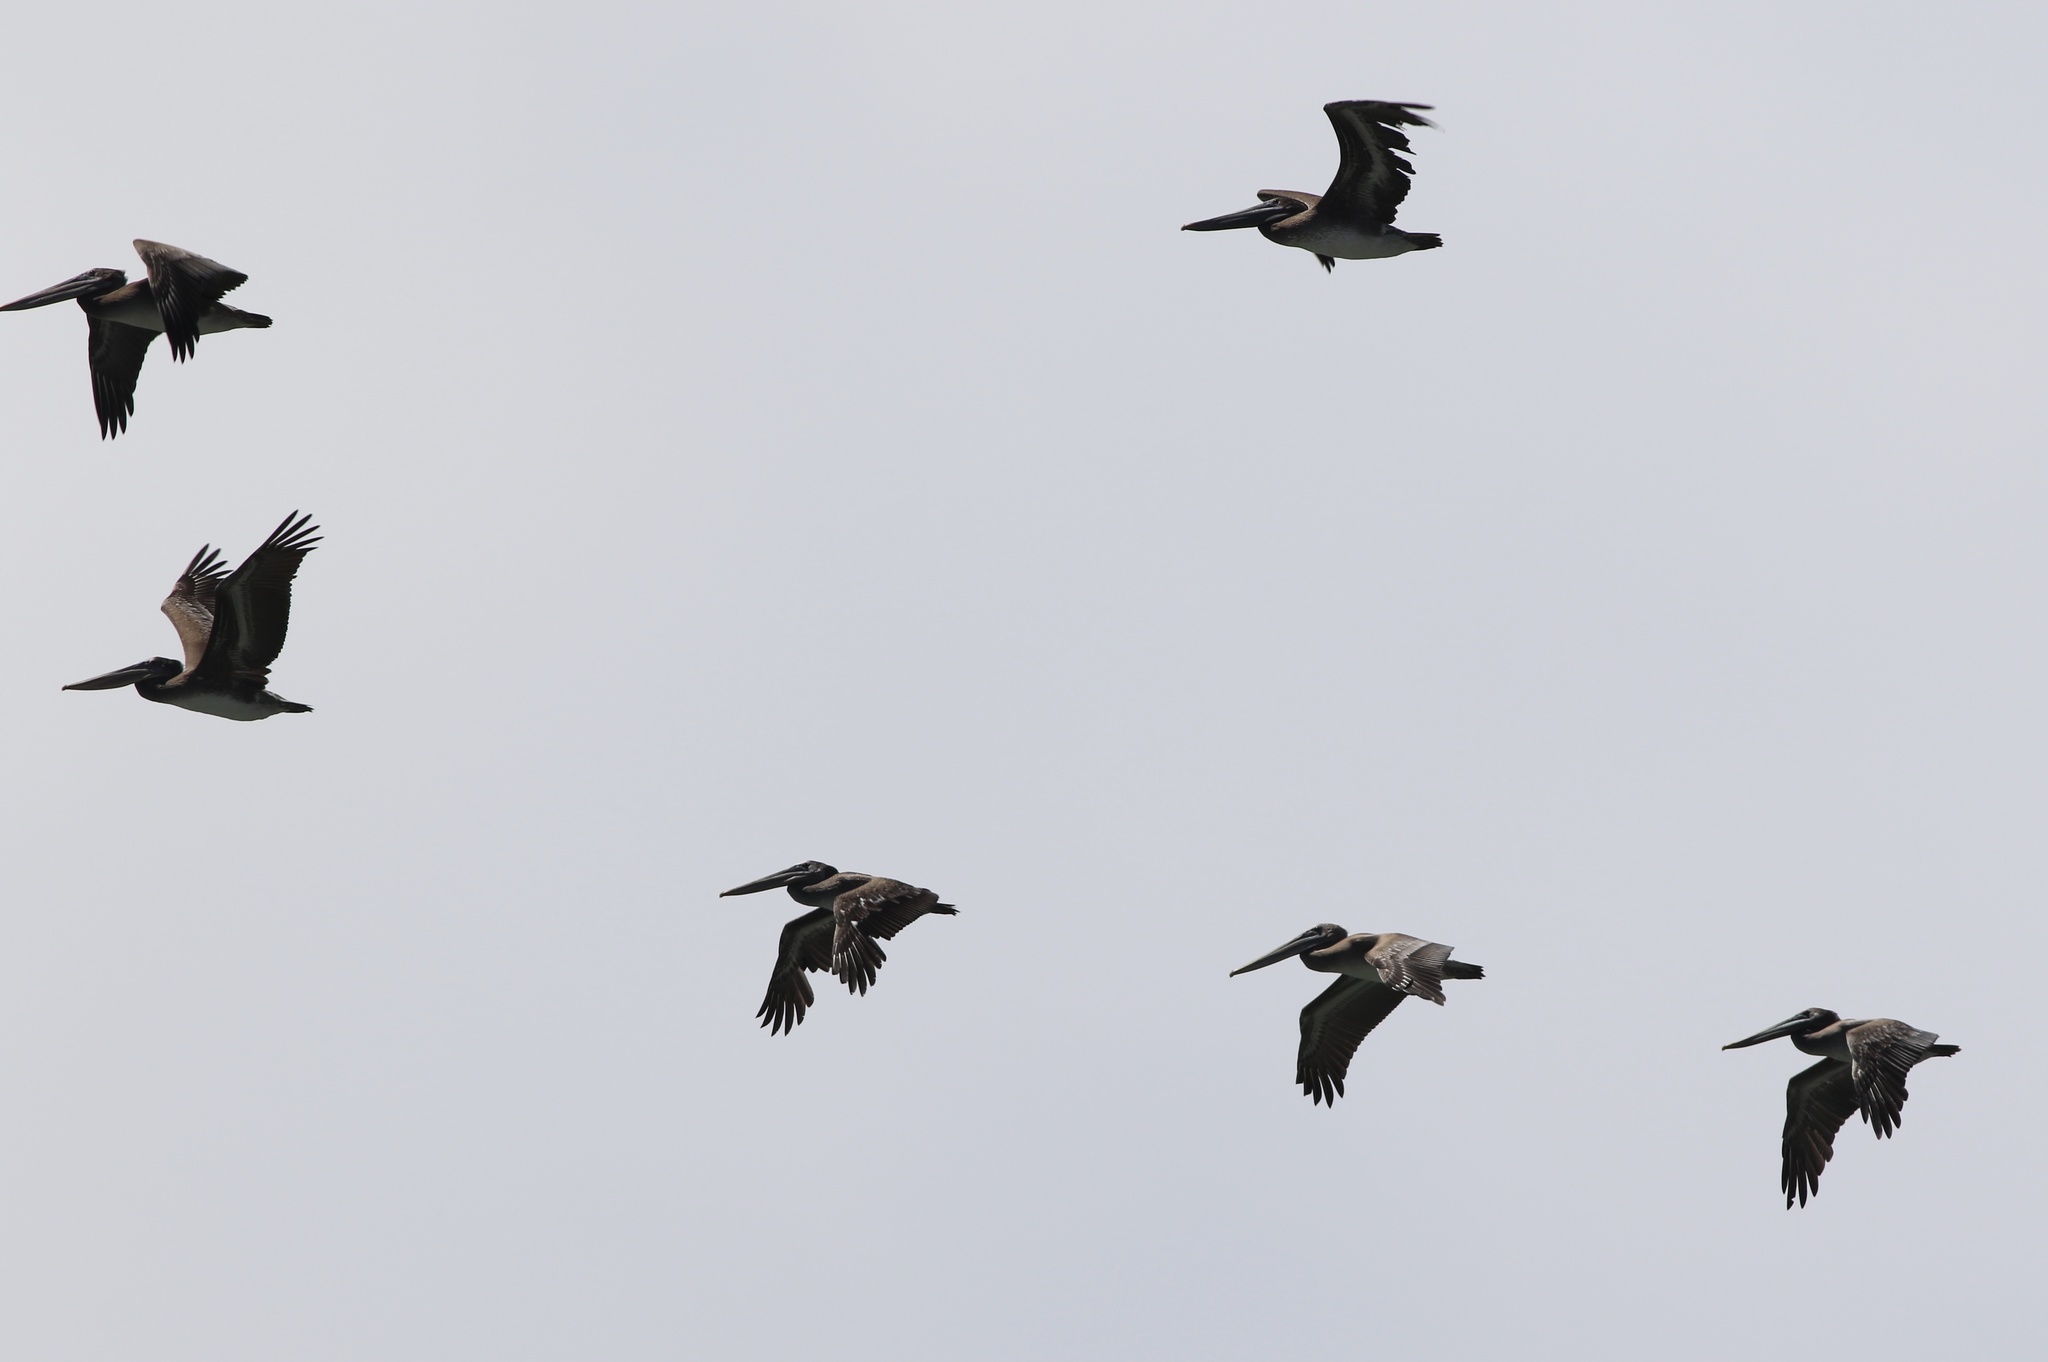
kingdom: Animalia
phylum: Chordata
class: Aves
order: Pelecaniformes
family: Pelecanidae
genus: Pelecanus
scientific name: Pelecanus occidentalis
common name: Brown pelican
